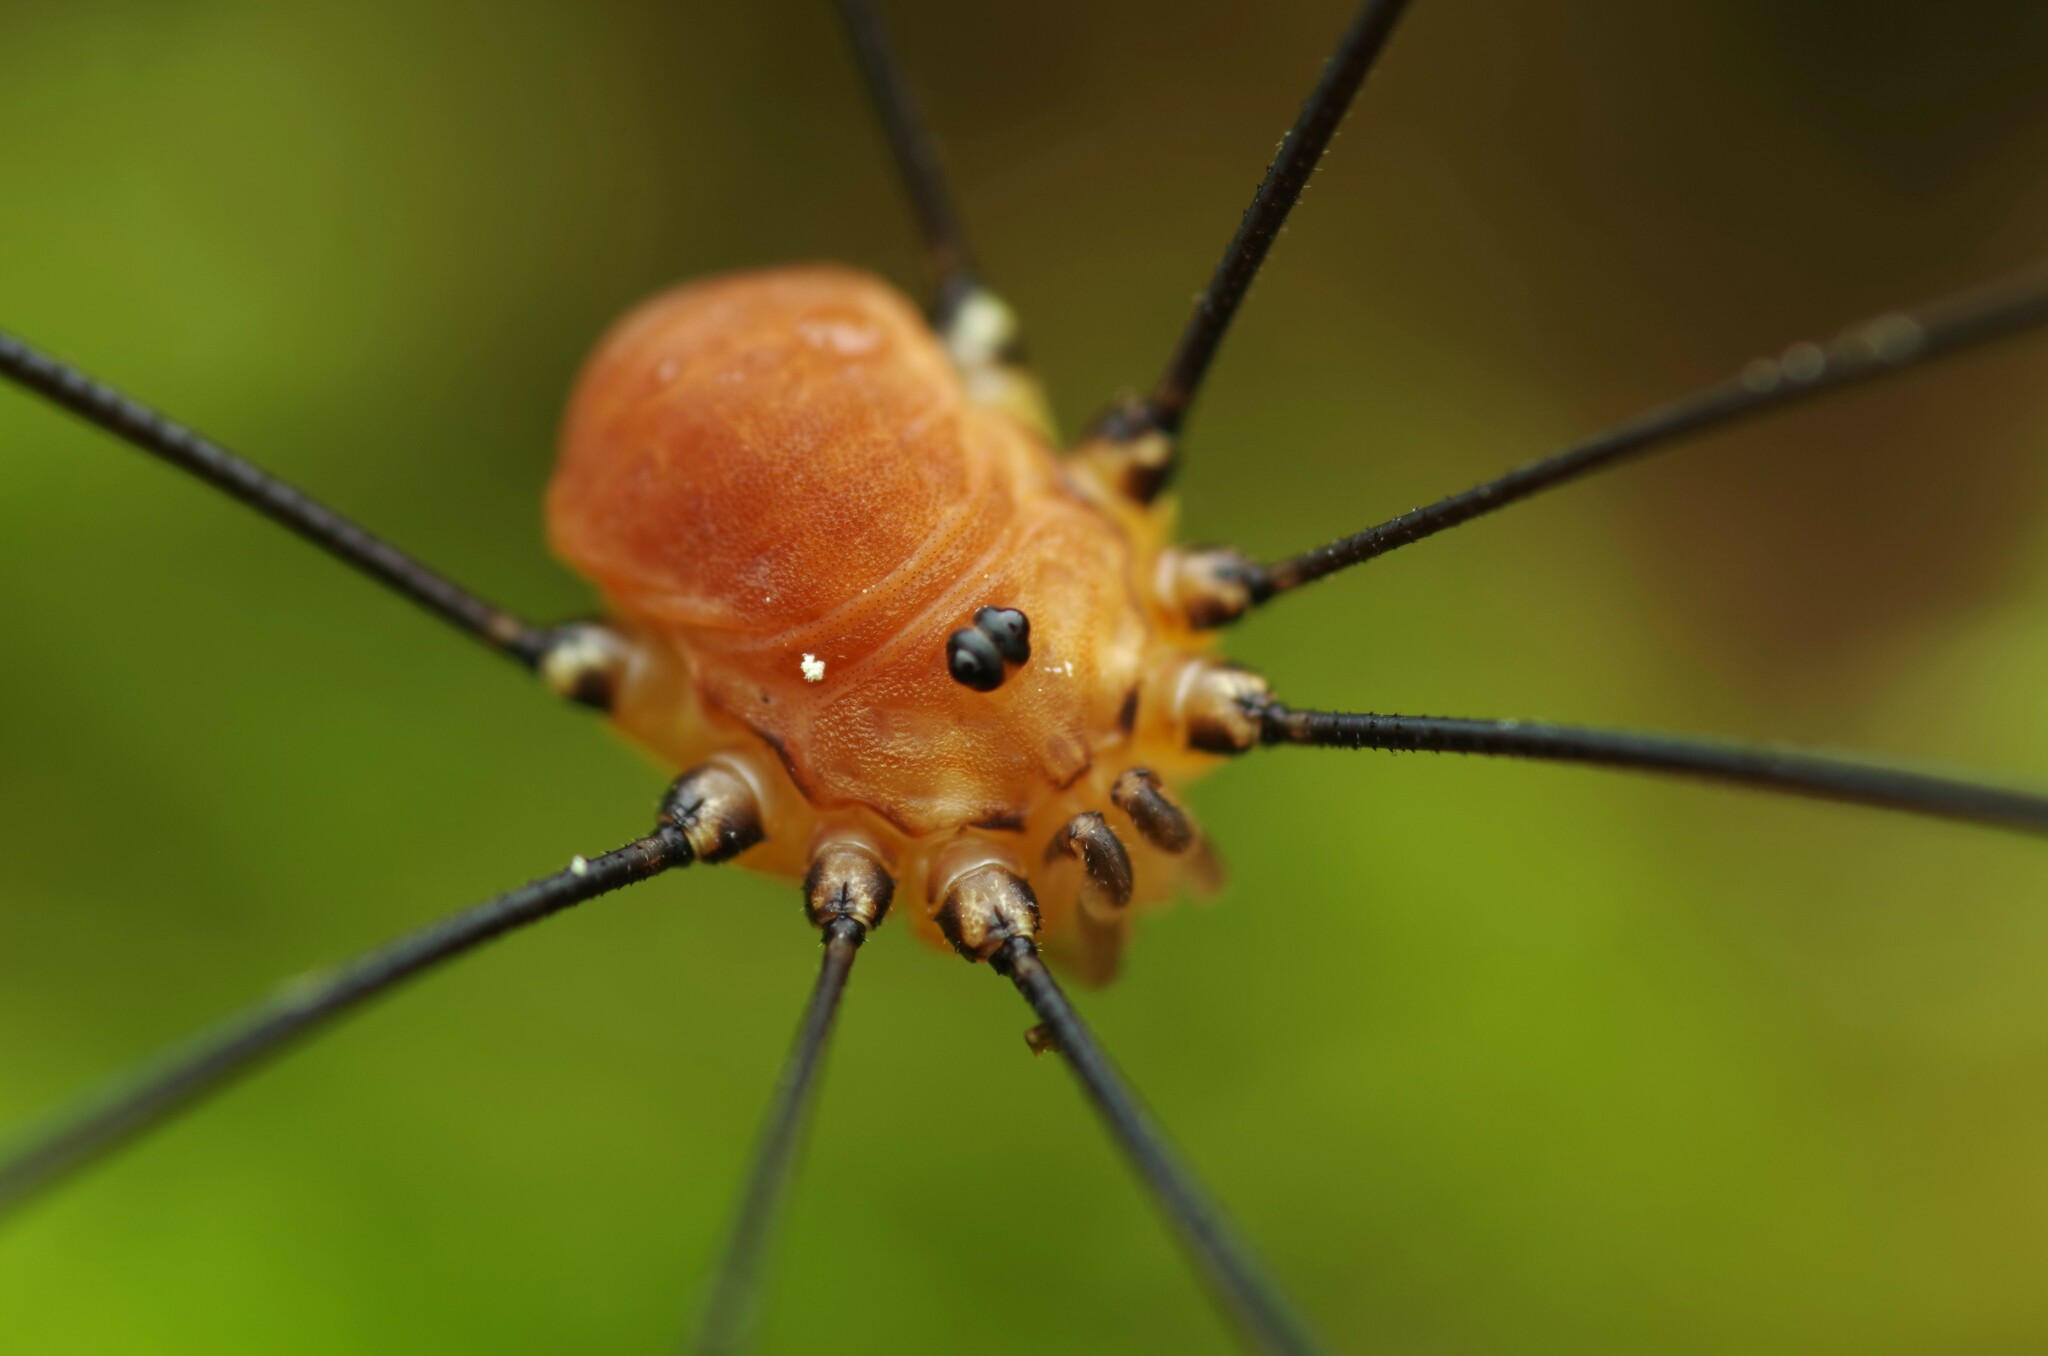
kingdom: Animalia
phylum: Arthropoda
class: Arachnida
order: Opiliones
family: Sclerosomatidae
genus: Leiobunum
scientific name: Leiobunum rotundum
